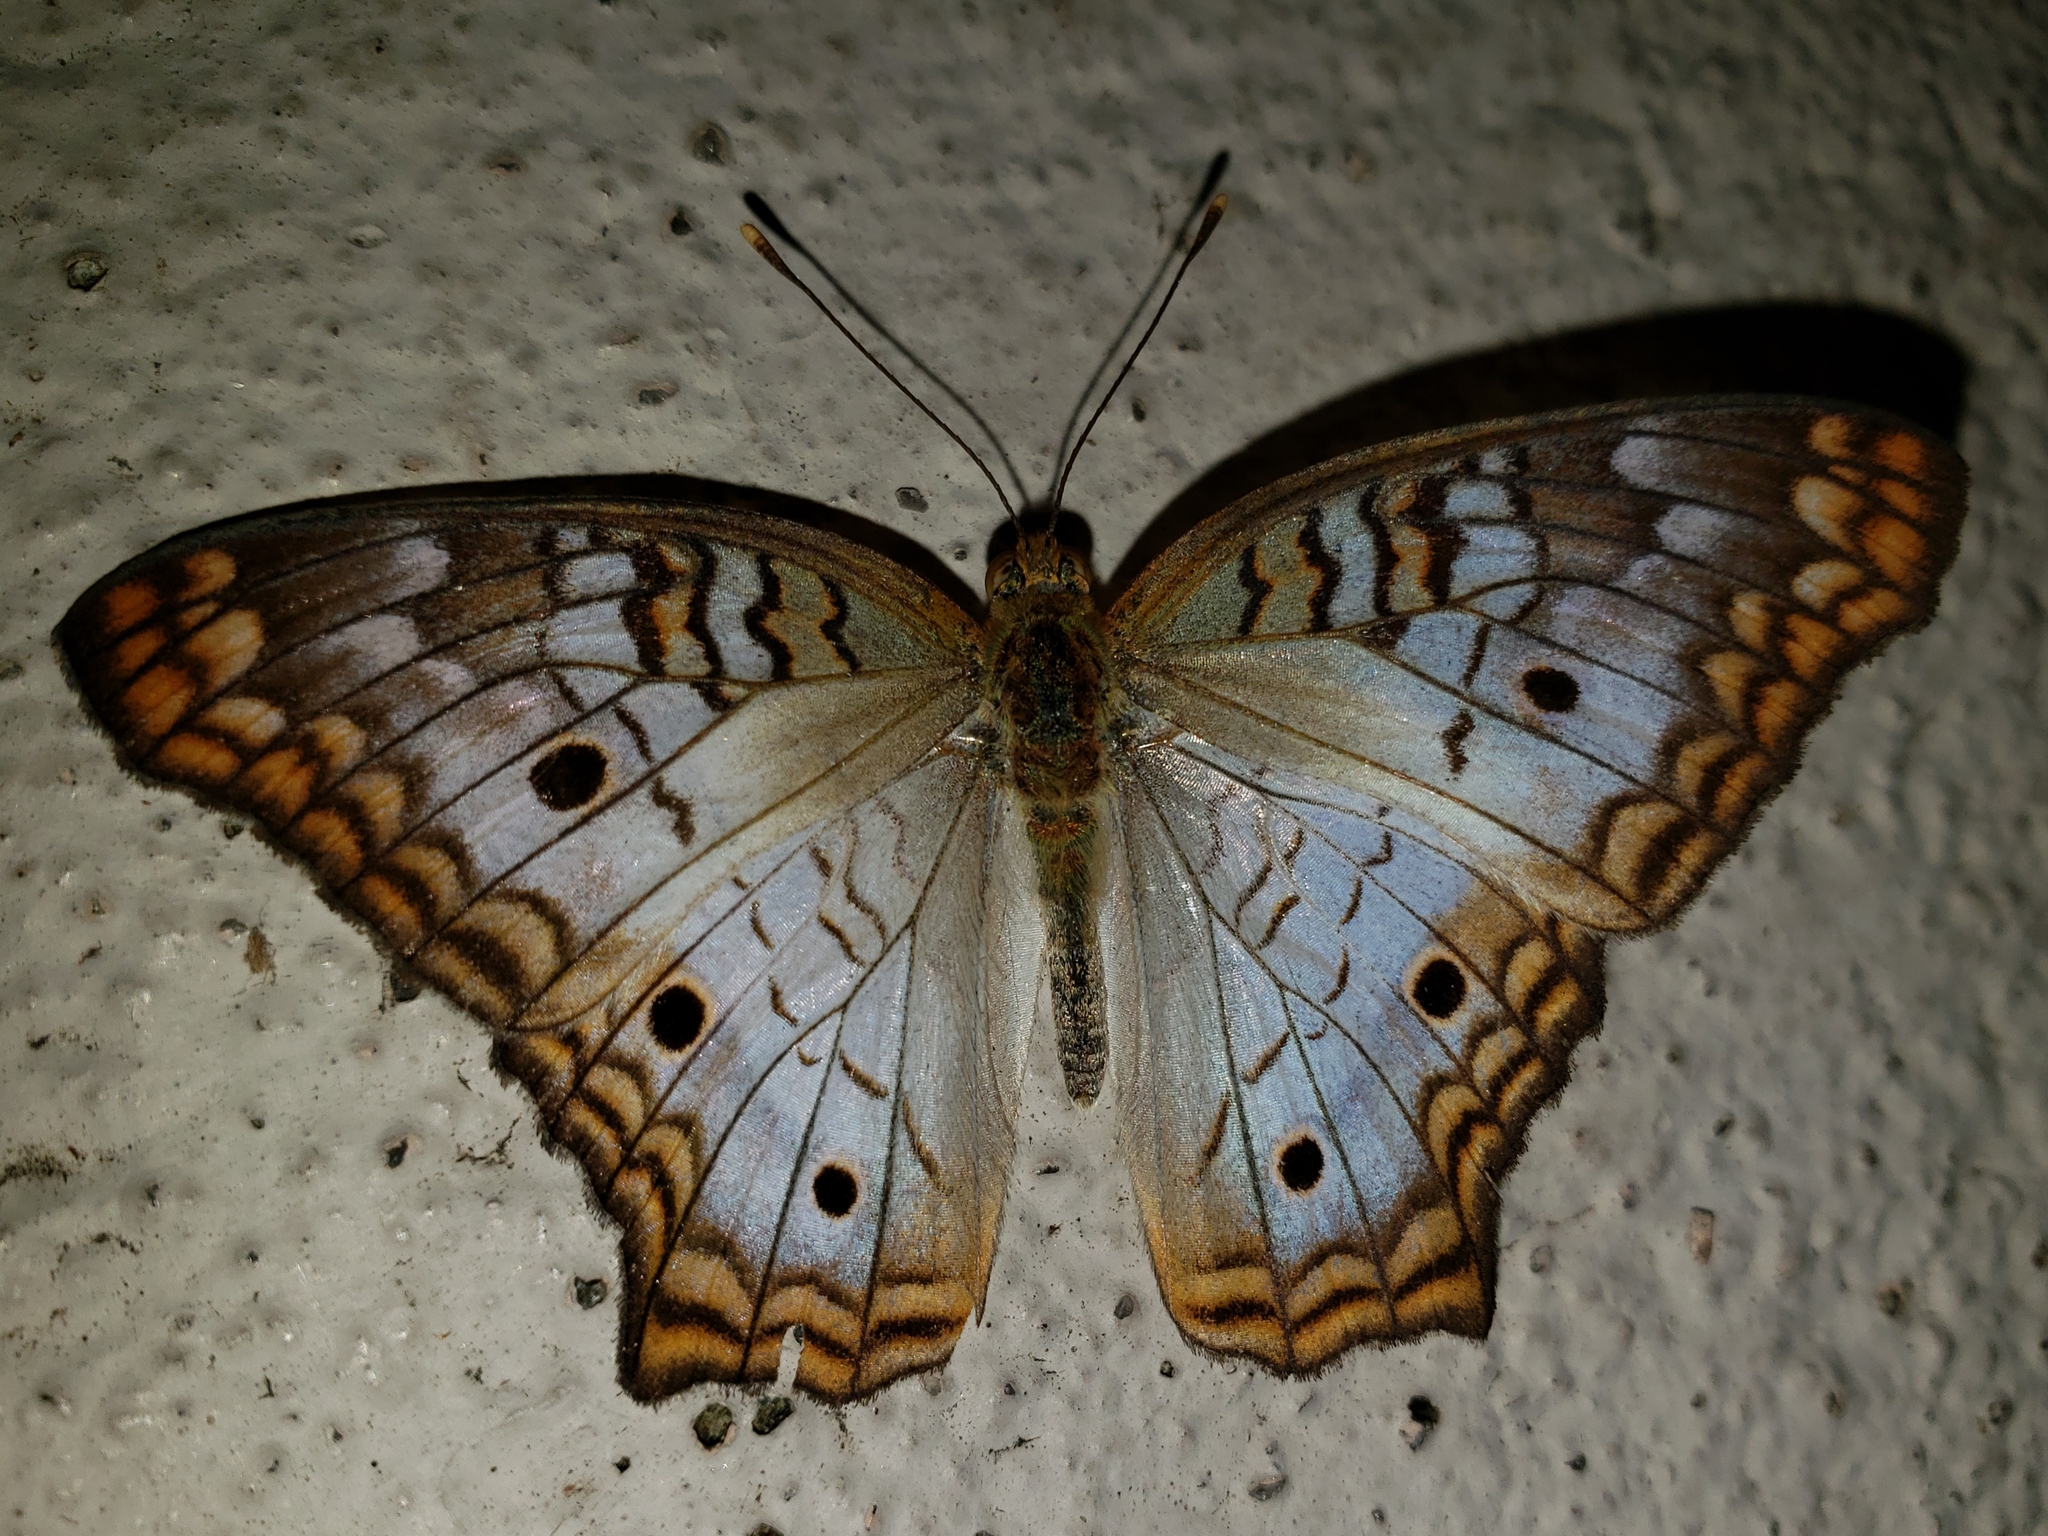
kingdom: Animalia
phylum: Arthropoda
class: Insecta
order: Lepidoptera
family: Nymphalidae
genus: Anartia
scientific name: Anartia jatrophae
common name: White peacock
